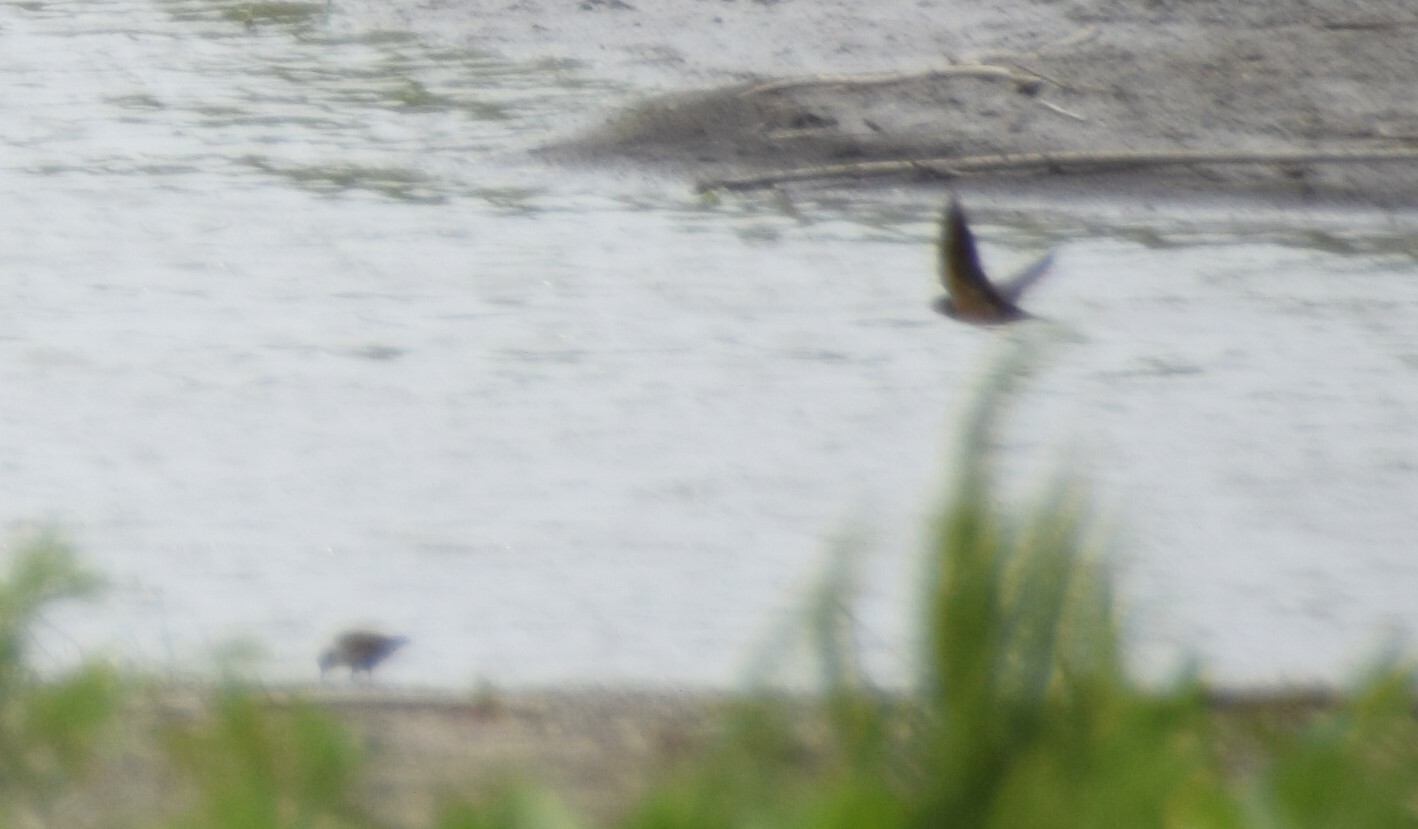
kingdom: Animalia
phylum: Chordata
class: Aves
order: Passeriformes
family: Hirundinidae
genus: Hirundo
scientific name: Hirundo rustica
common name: Barn swallow
